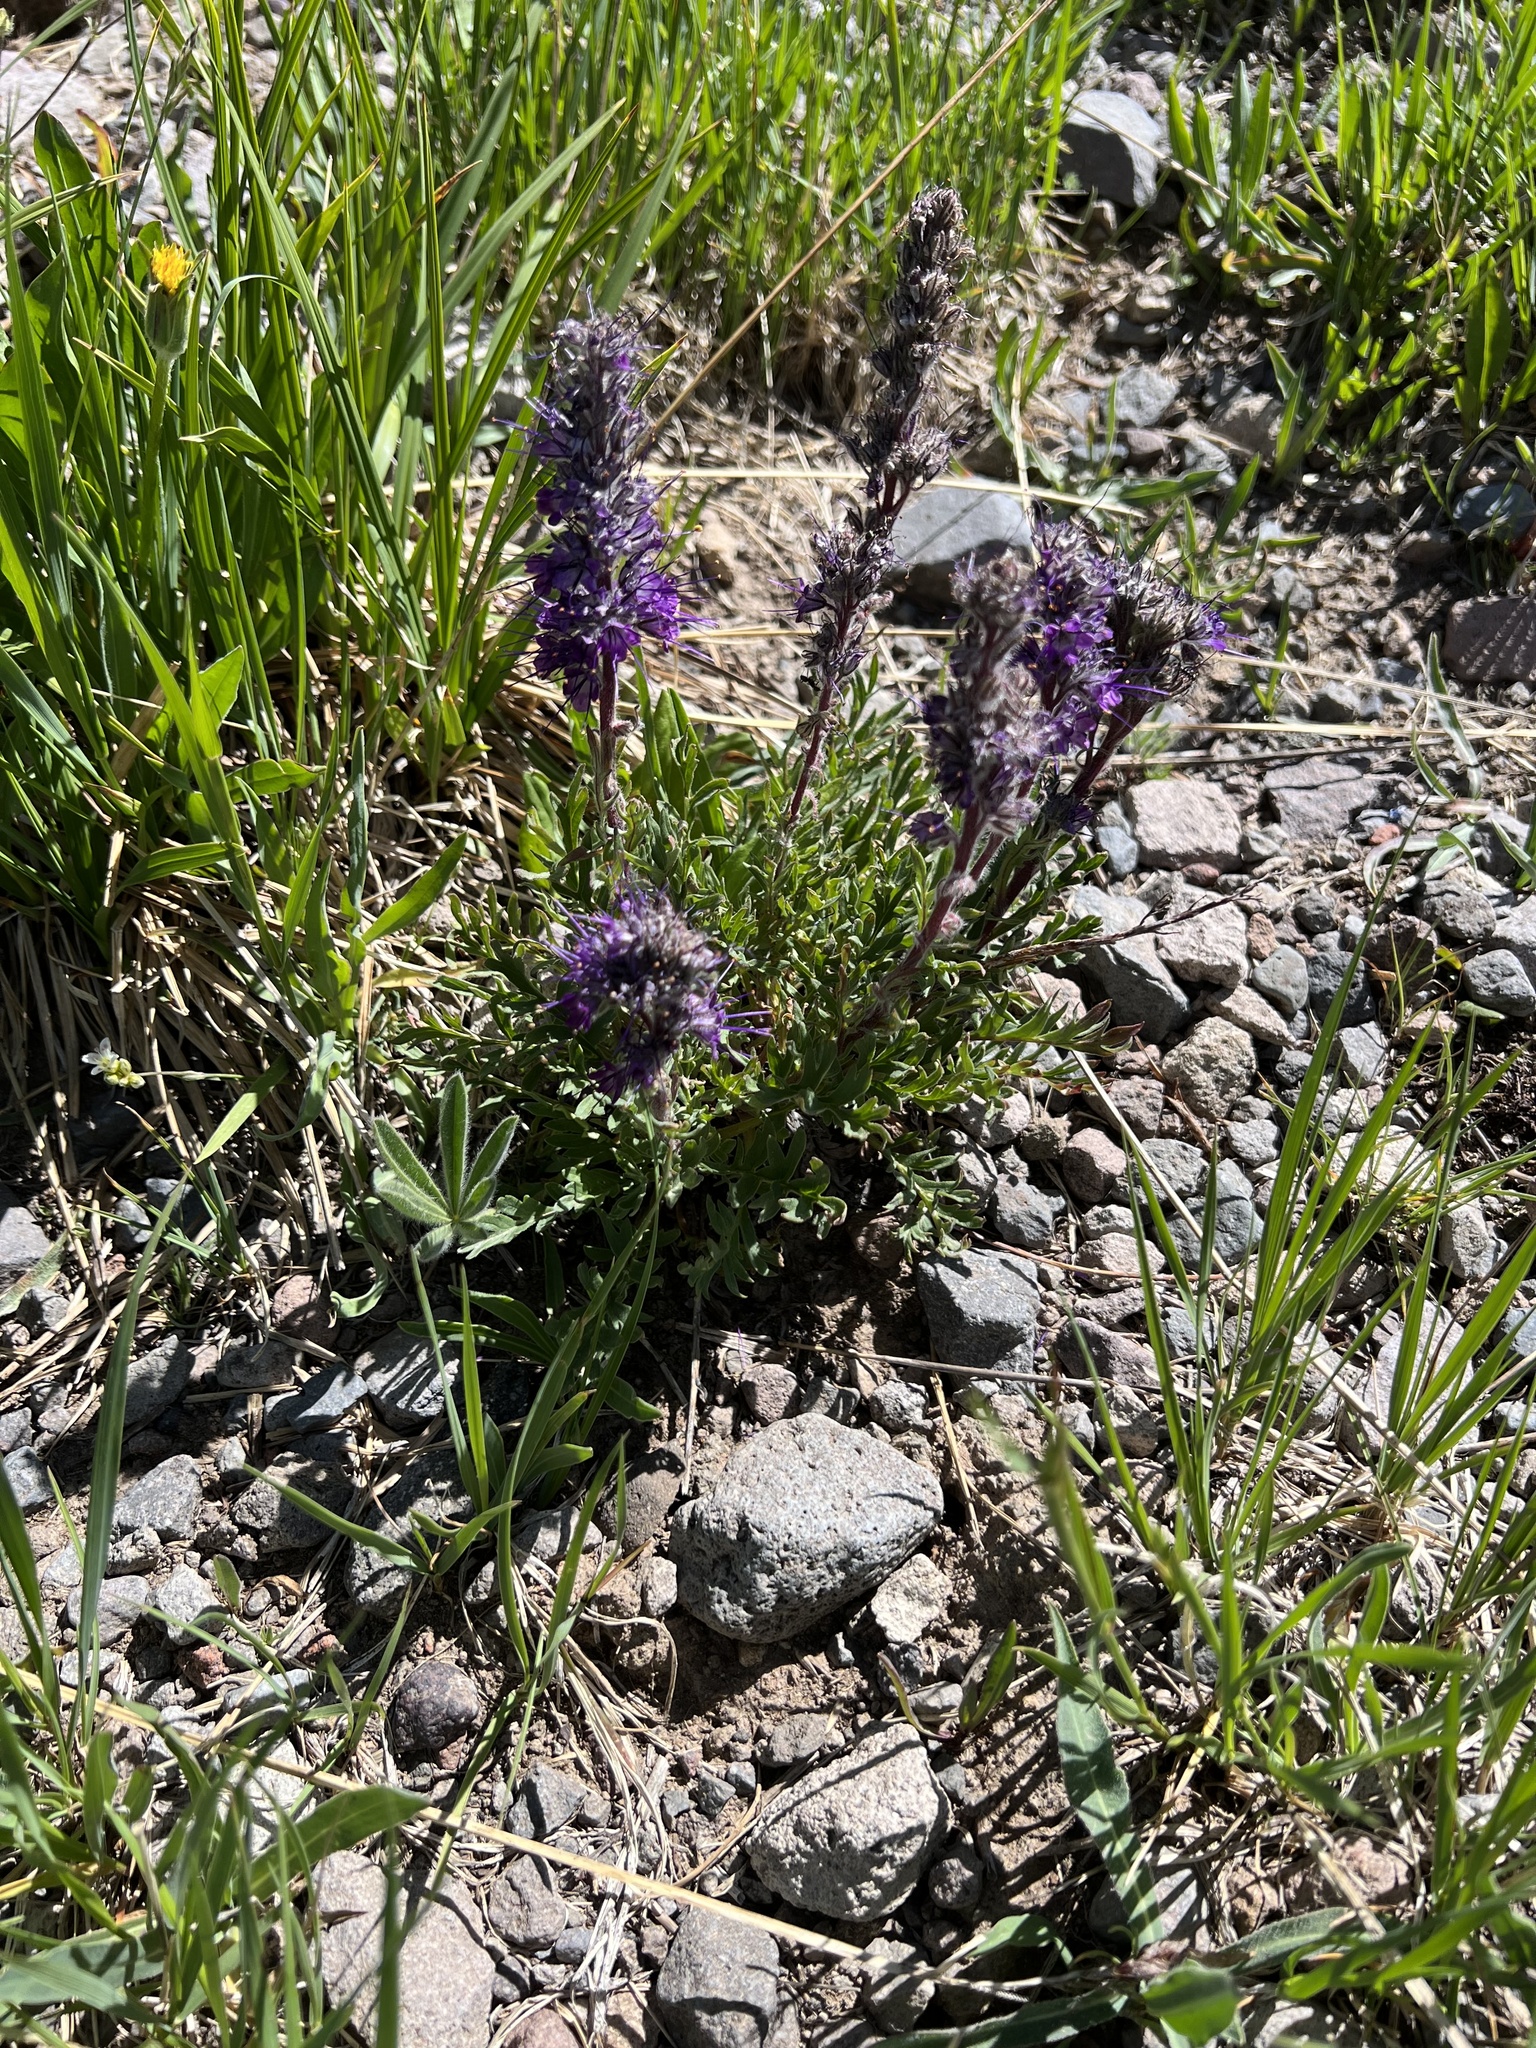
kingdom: Plantae
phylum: Tracheophyta
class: Magnoliopsida
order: Boraginales
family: Hydrophyllaceae
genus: Phacelia
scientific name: Phacelia sericea
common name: Silky phacelia
